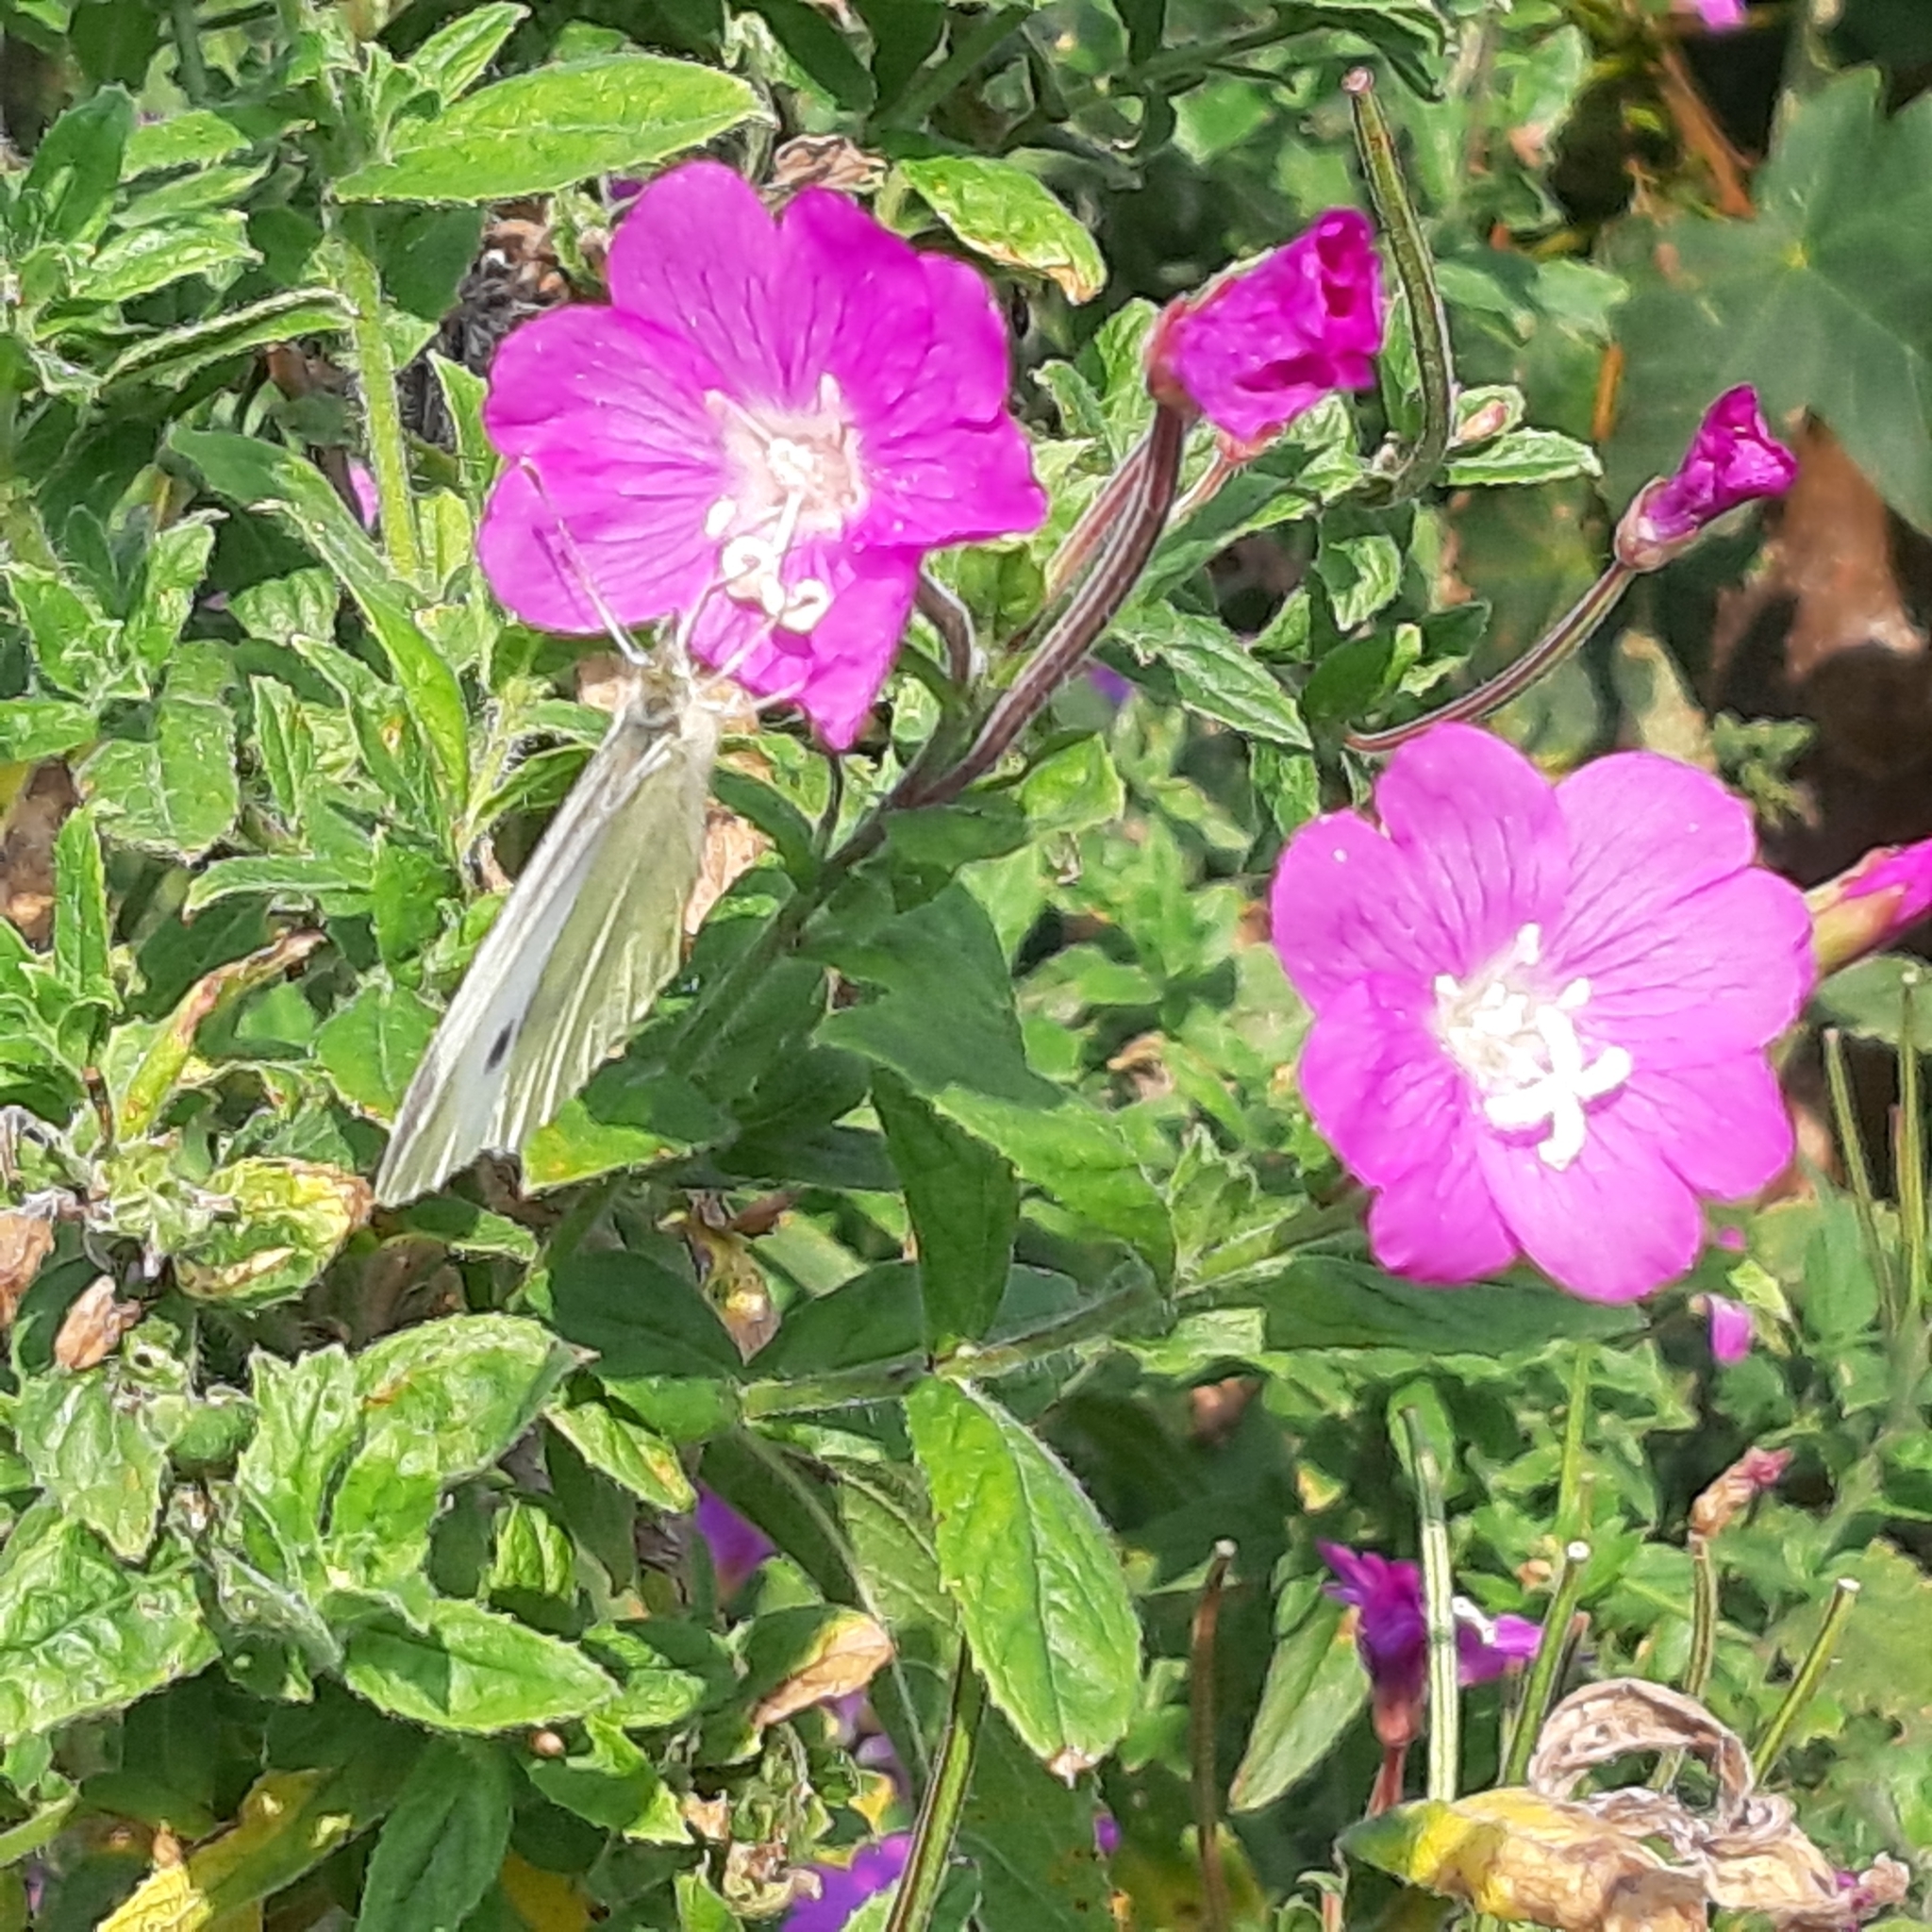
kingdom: Animalia
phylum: Arthropoda
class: Insecta
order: Lepidoptera
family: Pieridae
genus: Pieris
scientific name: Pieris rapae
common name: Small white
